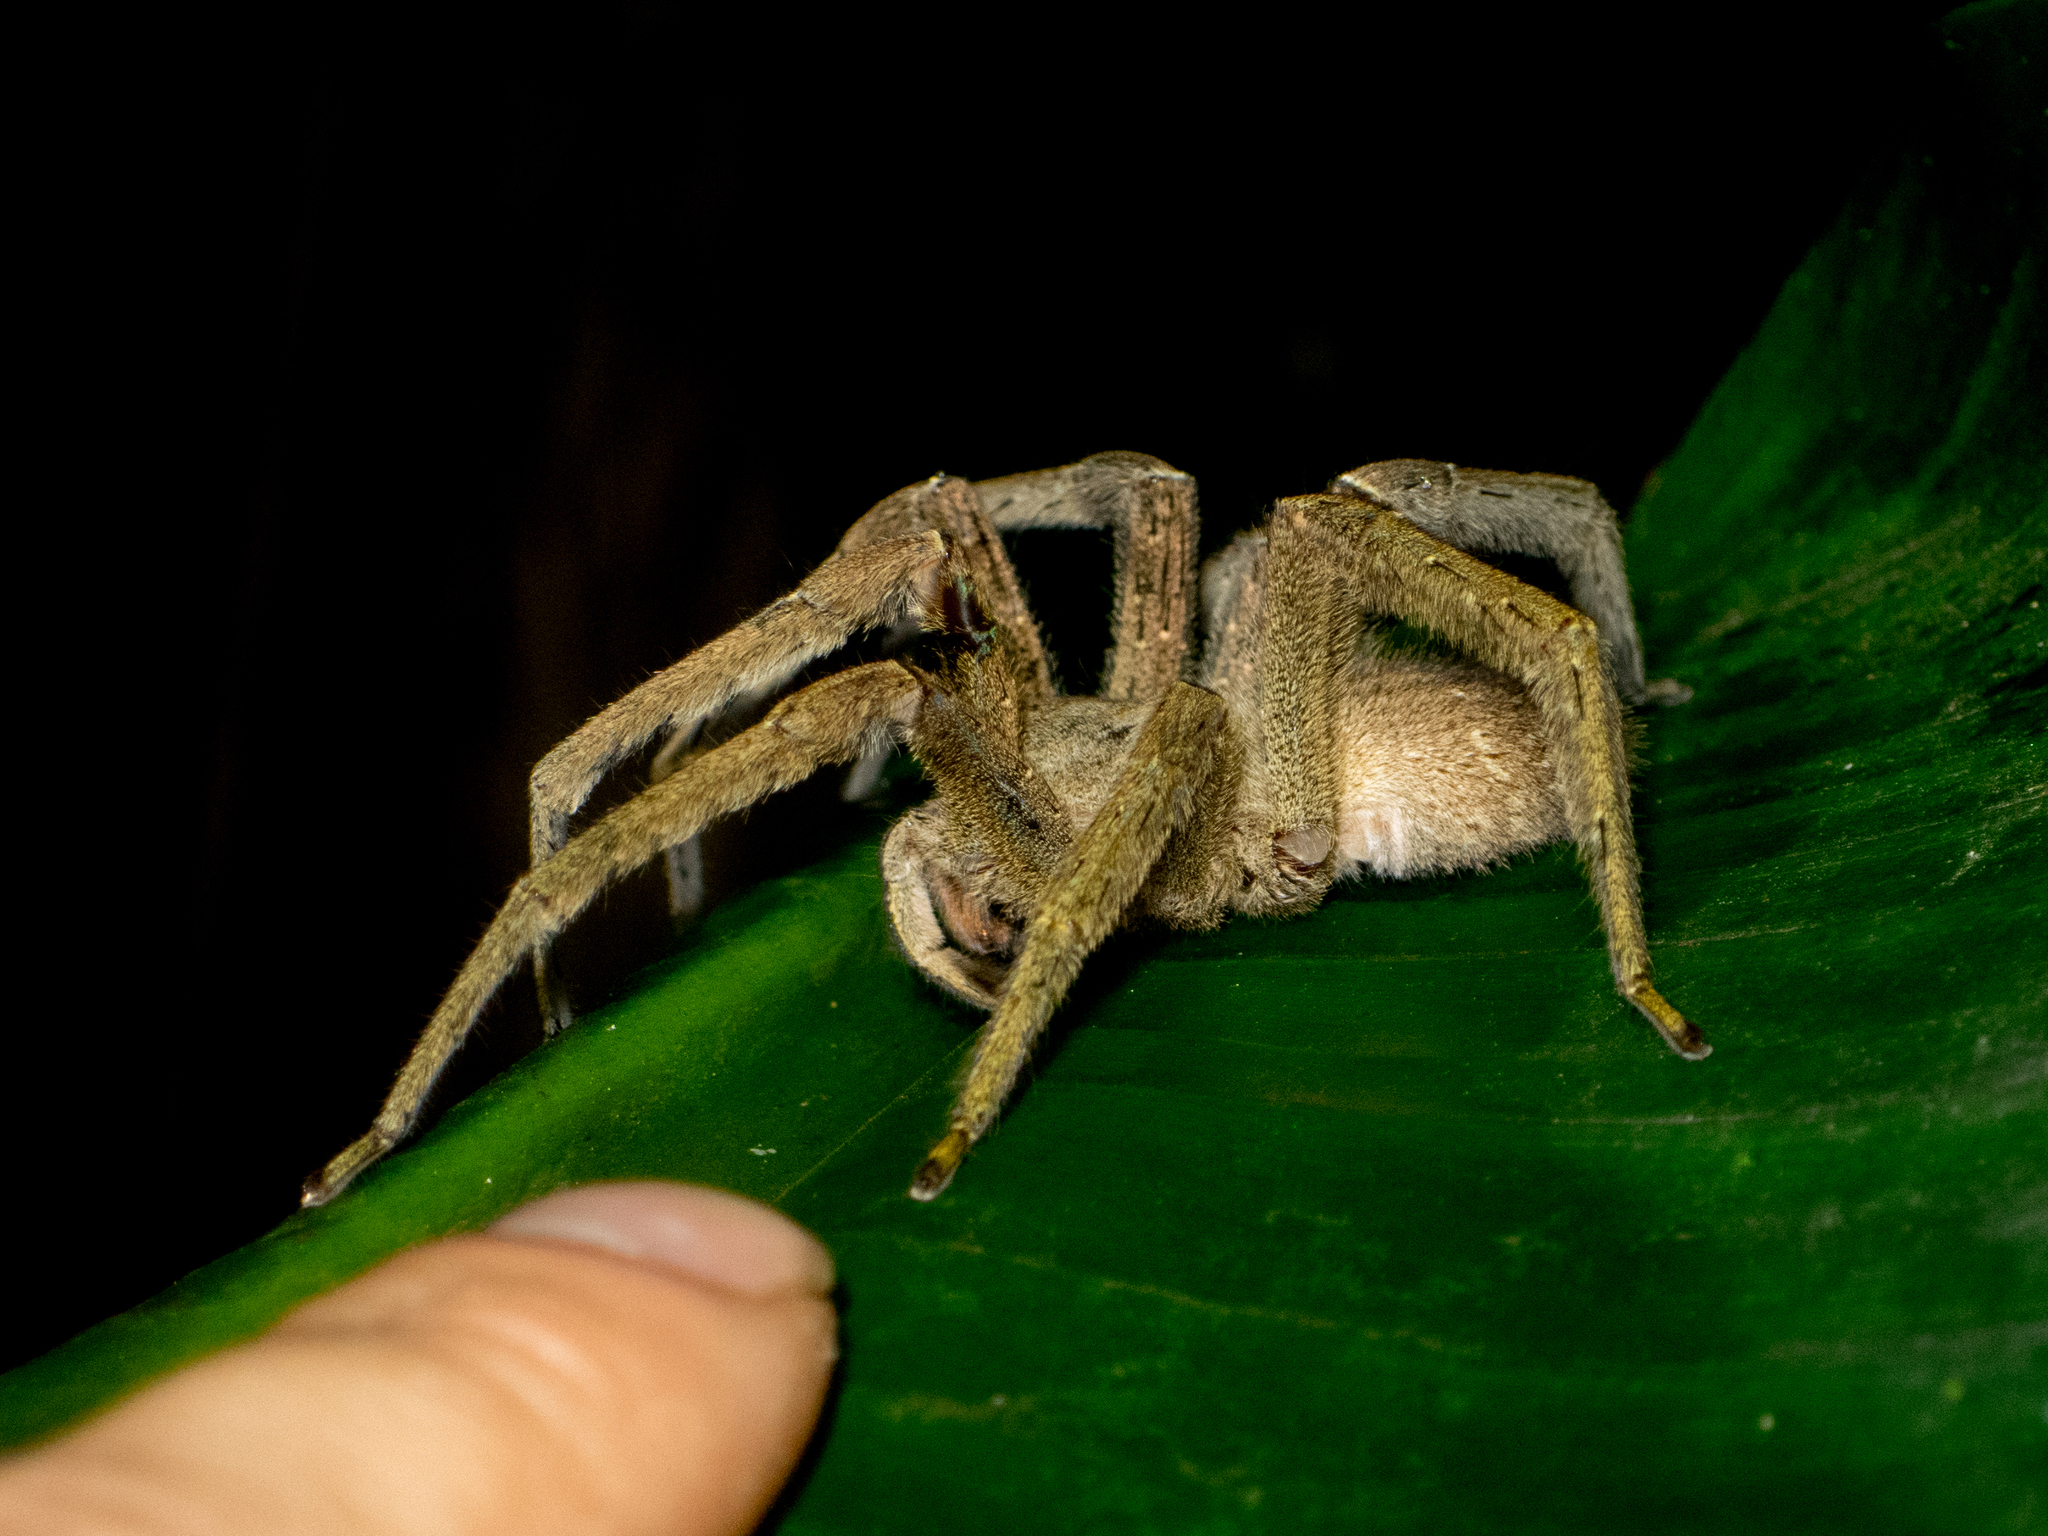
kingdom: Animalia
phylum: Arthropoda
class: Arachnida
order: Araneae
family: Ctenidae
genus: Phoneutria
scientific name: Phoneutria depilata
